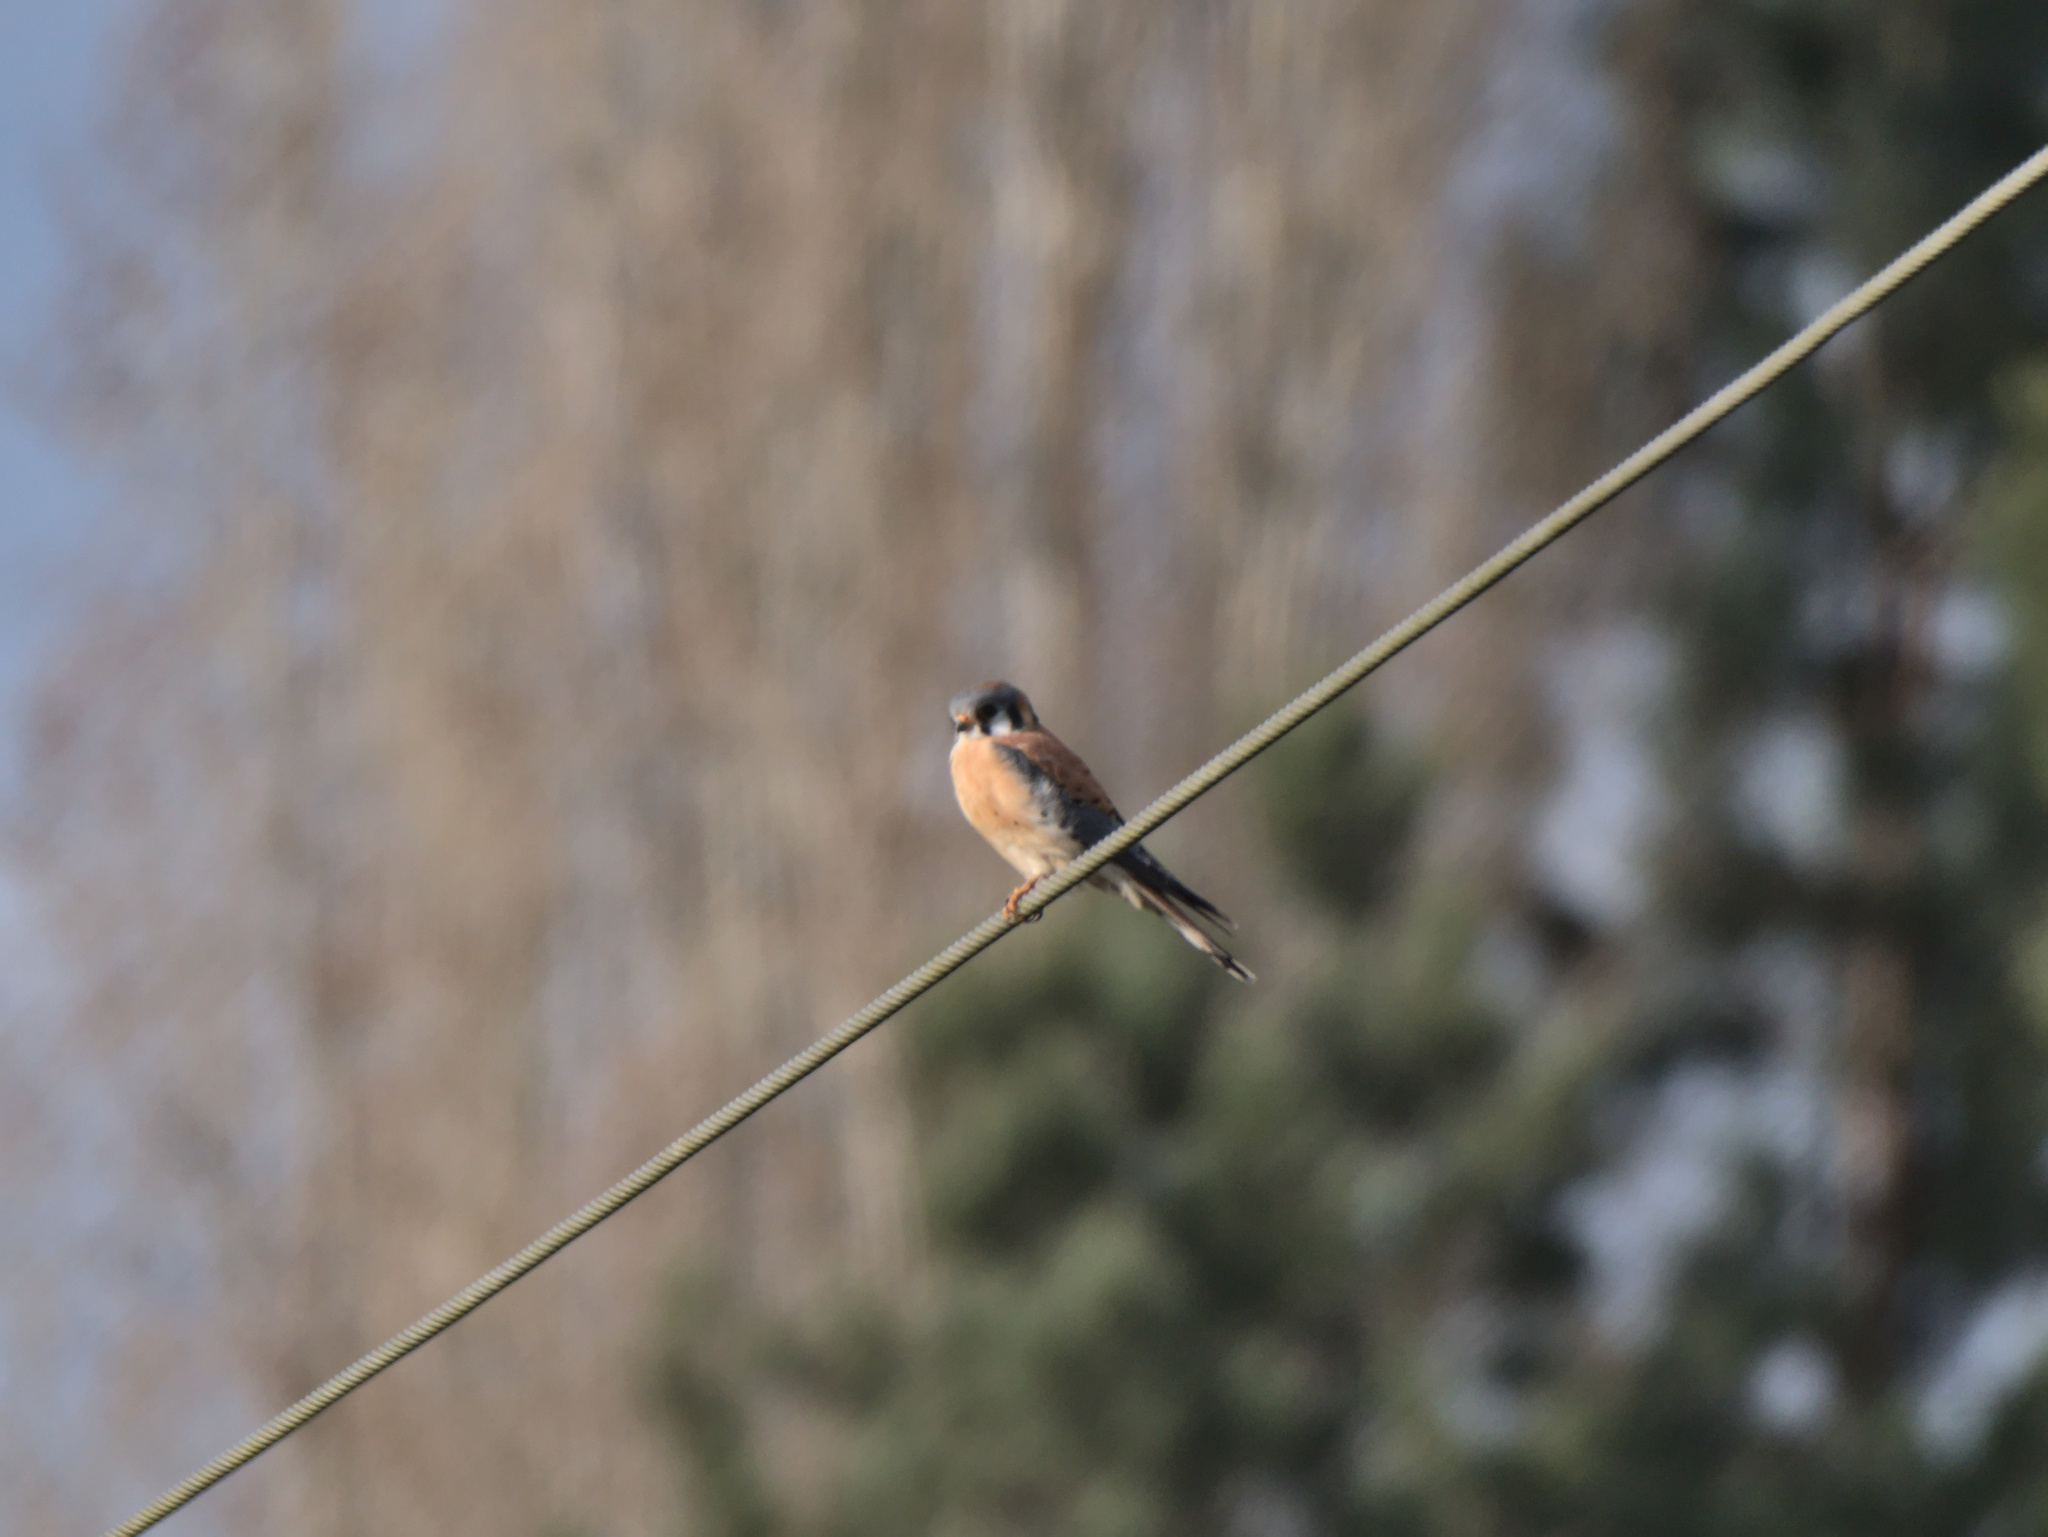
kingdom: Animalia
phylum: Chordata
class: Aves
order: Falconiformes
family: Falconidae
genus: Falco
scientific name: Falco sparverius
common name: American kestrel
